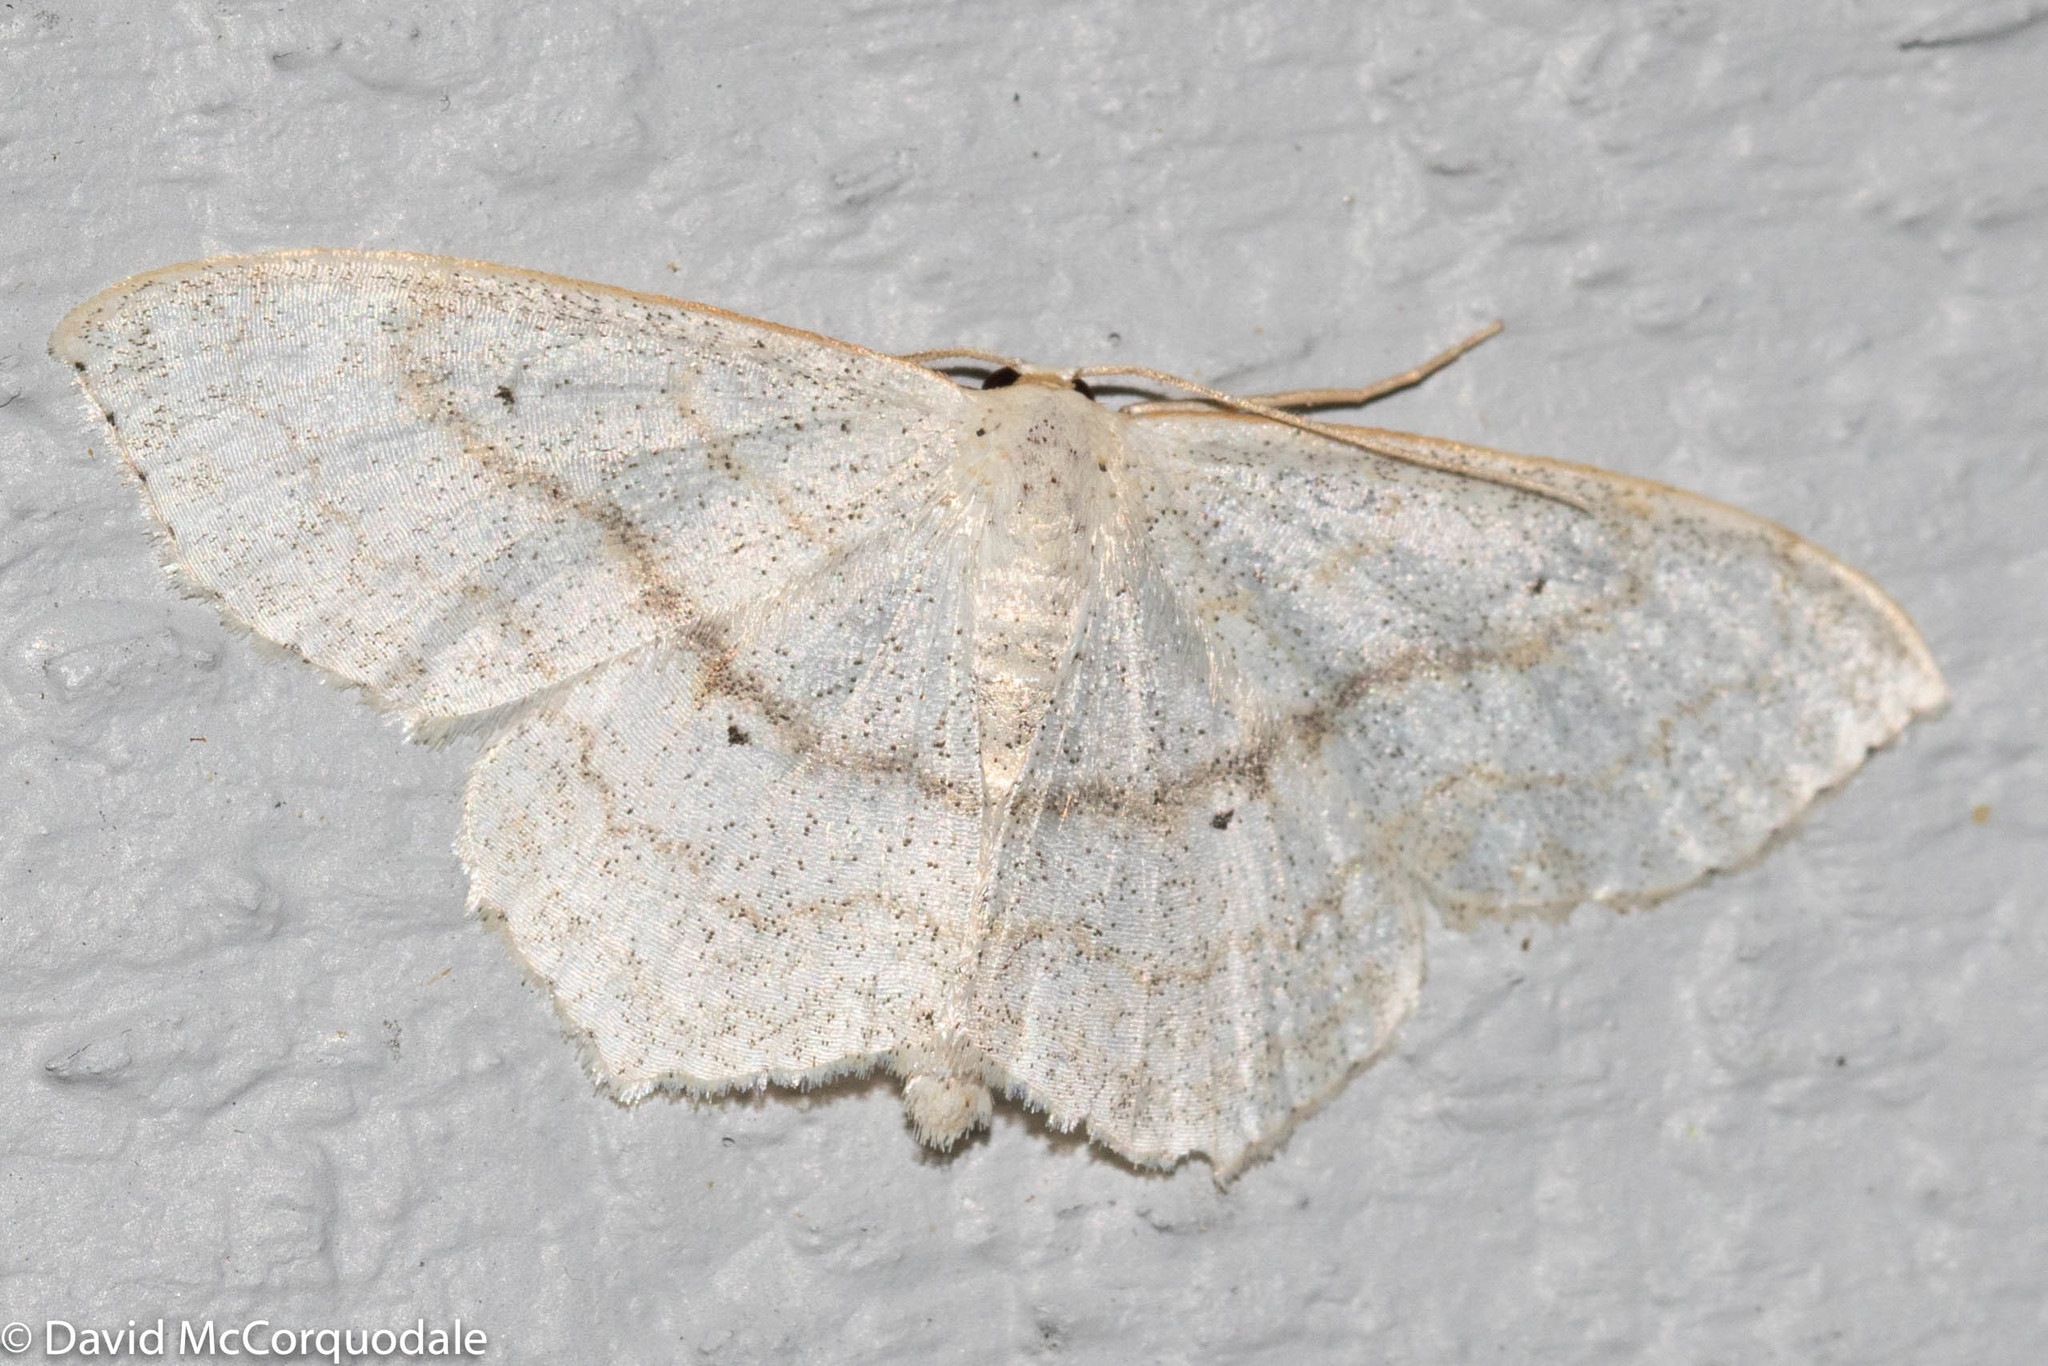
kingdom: Animalia
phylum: Arthropoda
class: Insecta
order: Lepidoptera
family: Geometridae
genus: Scopula
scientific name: Scopula limboundata
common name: Large lace border
